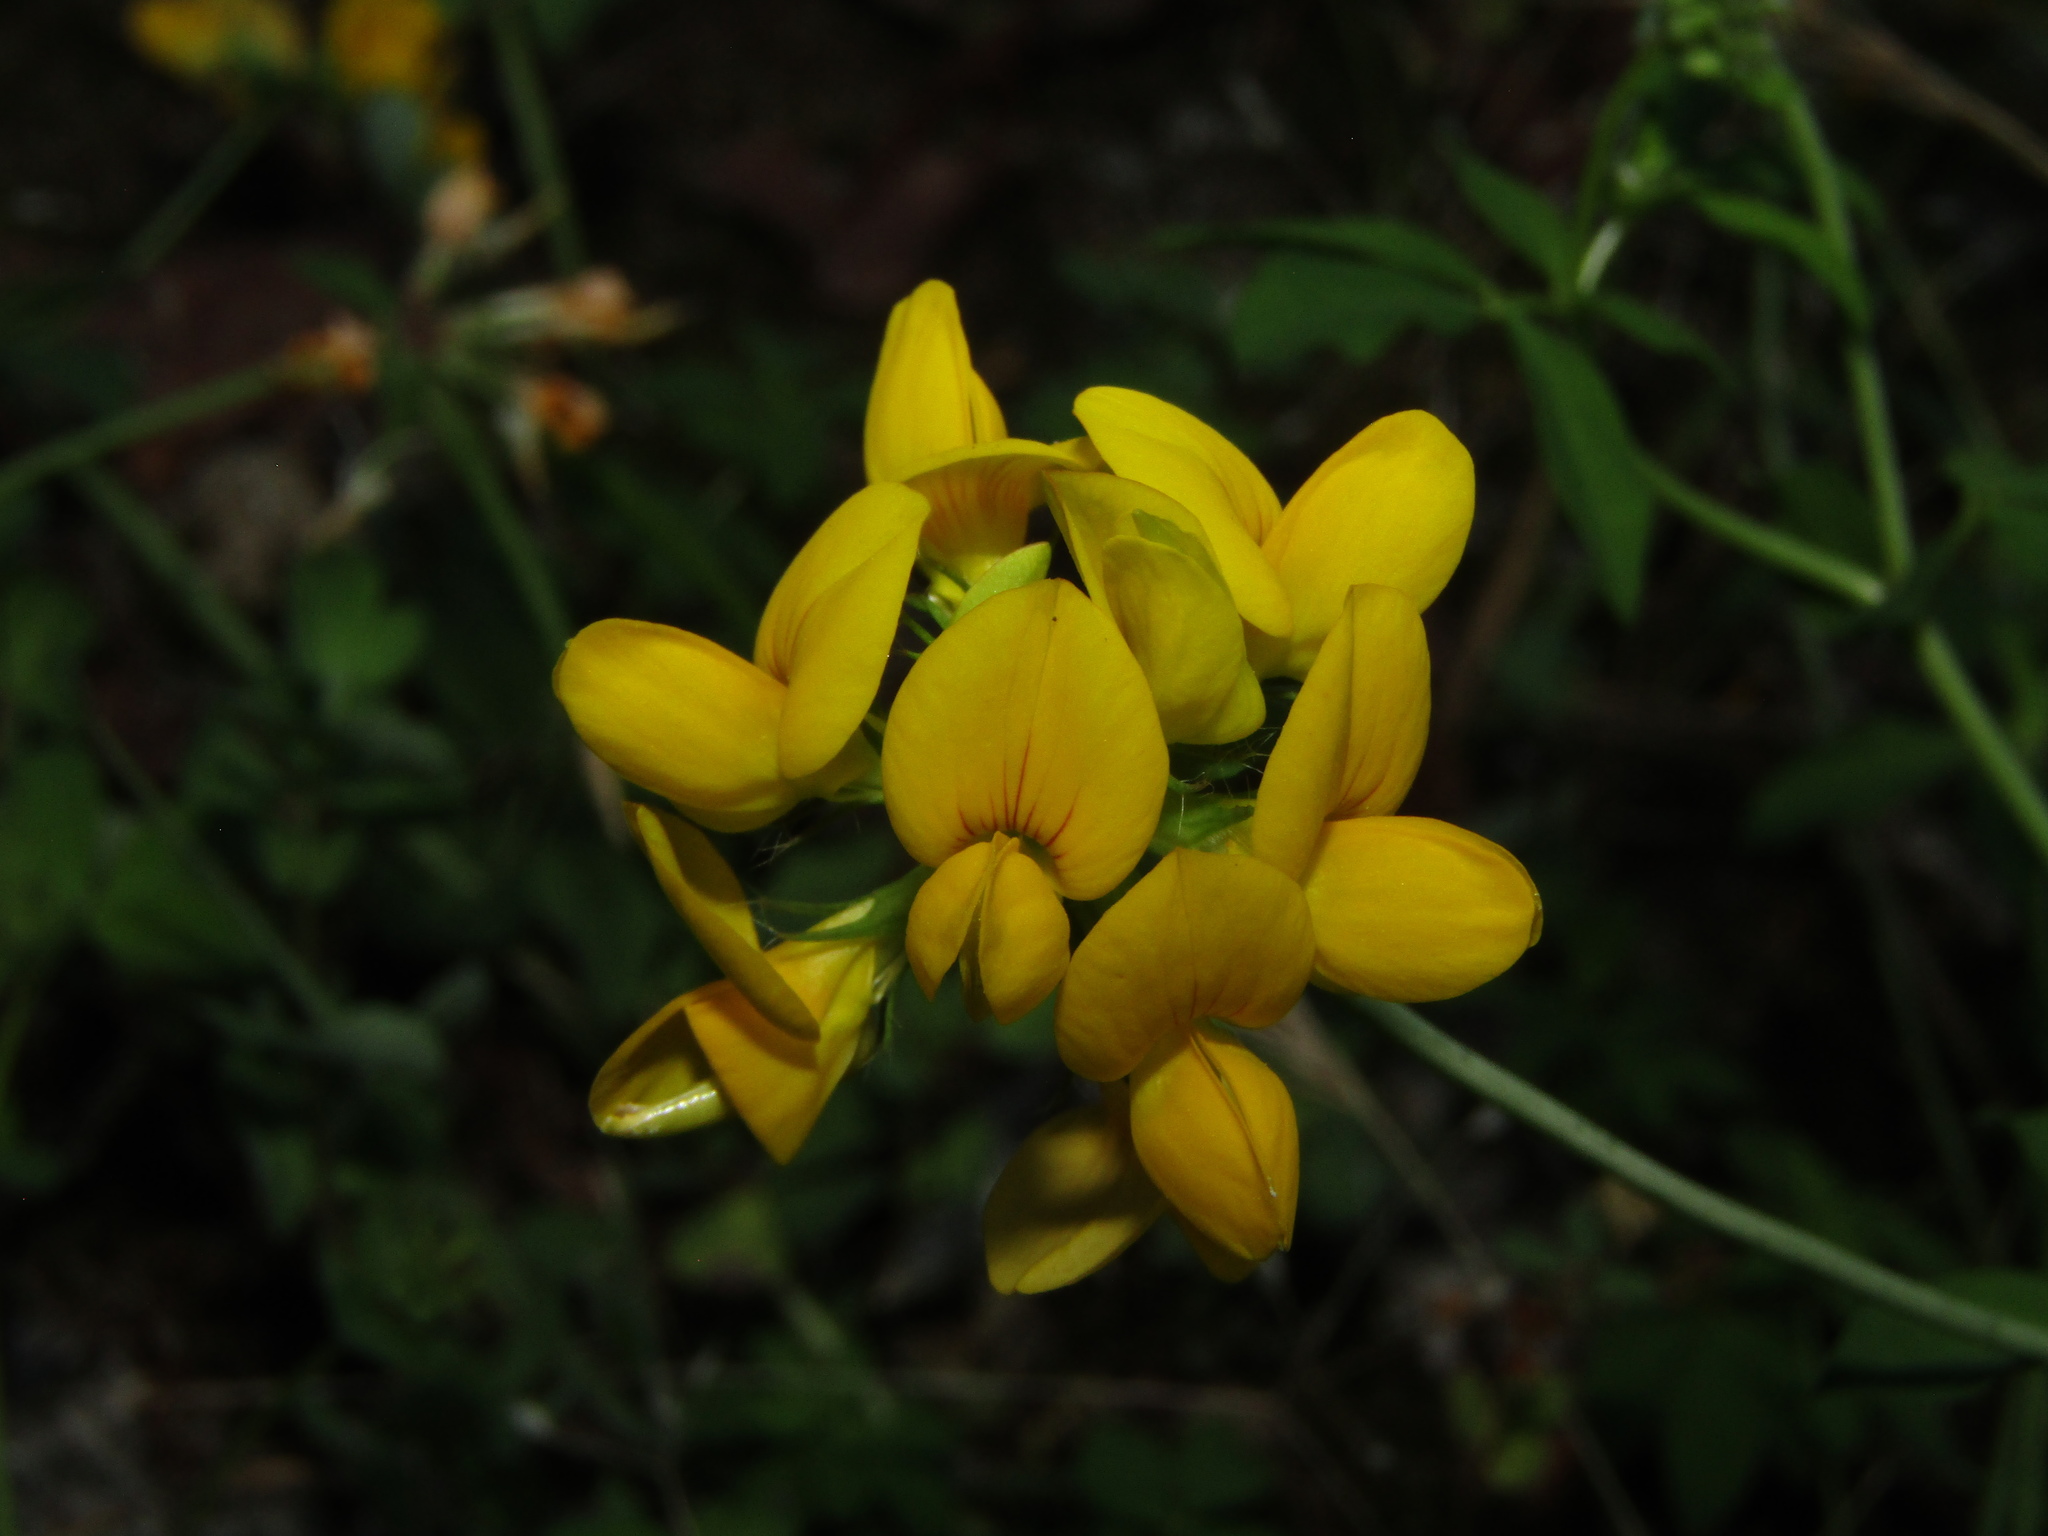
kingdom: Plantae
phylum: Tracheophyta
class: Magnoliopsida
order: Fabales
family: Fabaceae
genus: Lotus
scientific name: Lotus pedunculatus
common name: Greater birdsfoot-trefoil
